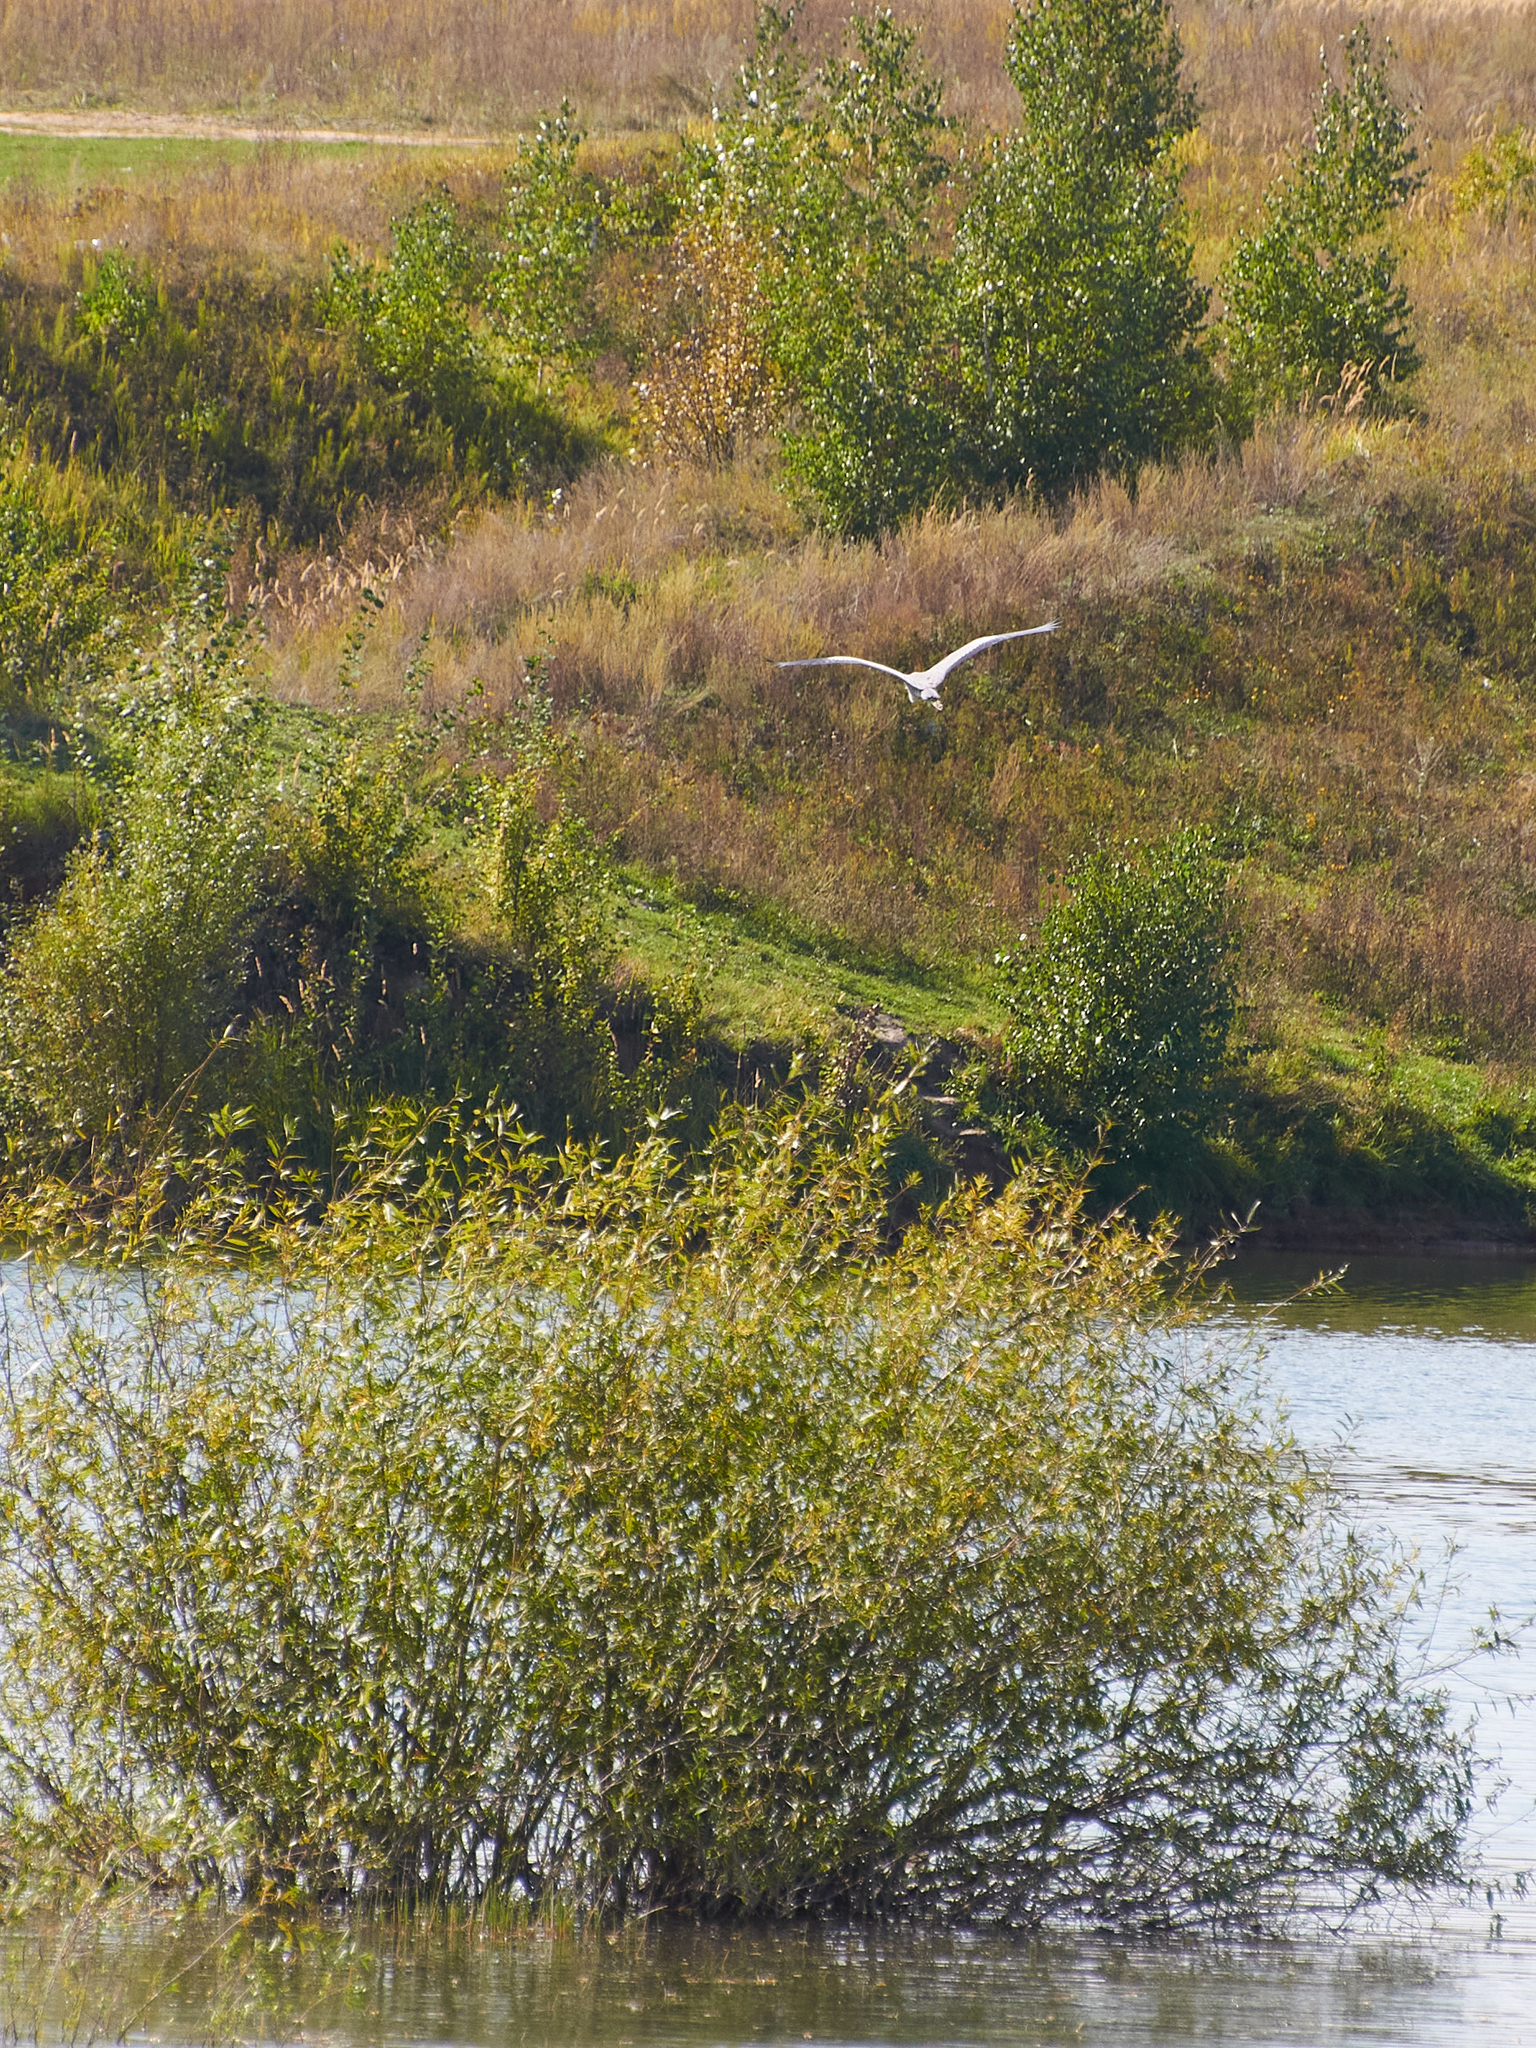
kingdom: Animalia
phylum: Chordata
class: Aves
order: Pelecaniformes
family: Ardeidae
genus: Ardea
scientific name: Ardea cinerea
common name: Grey heron
